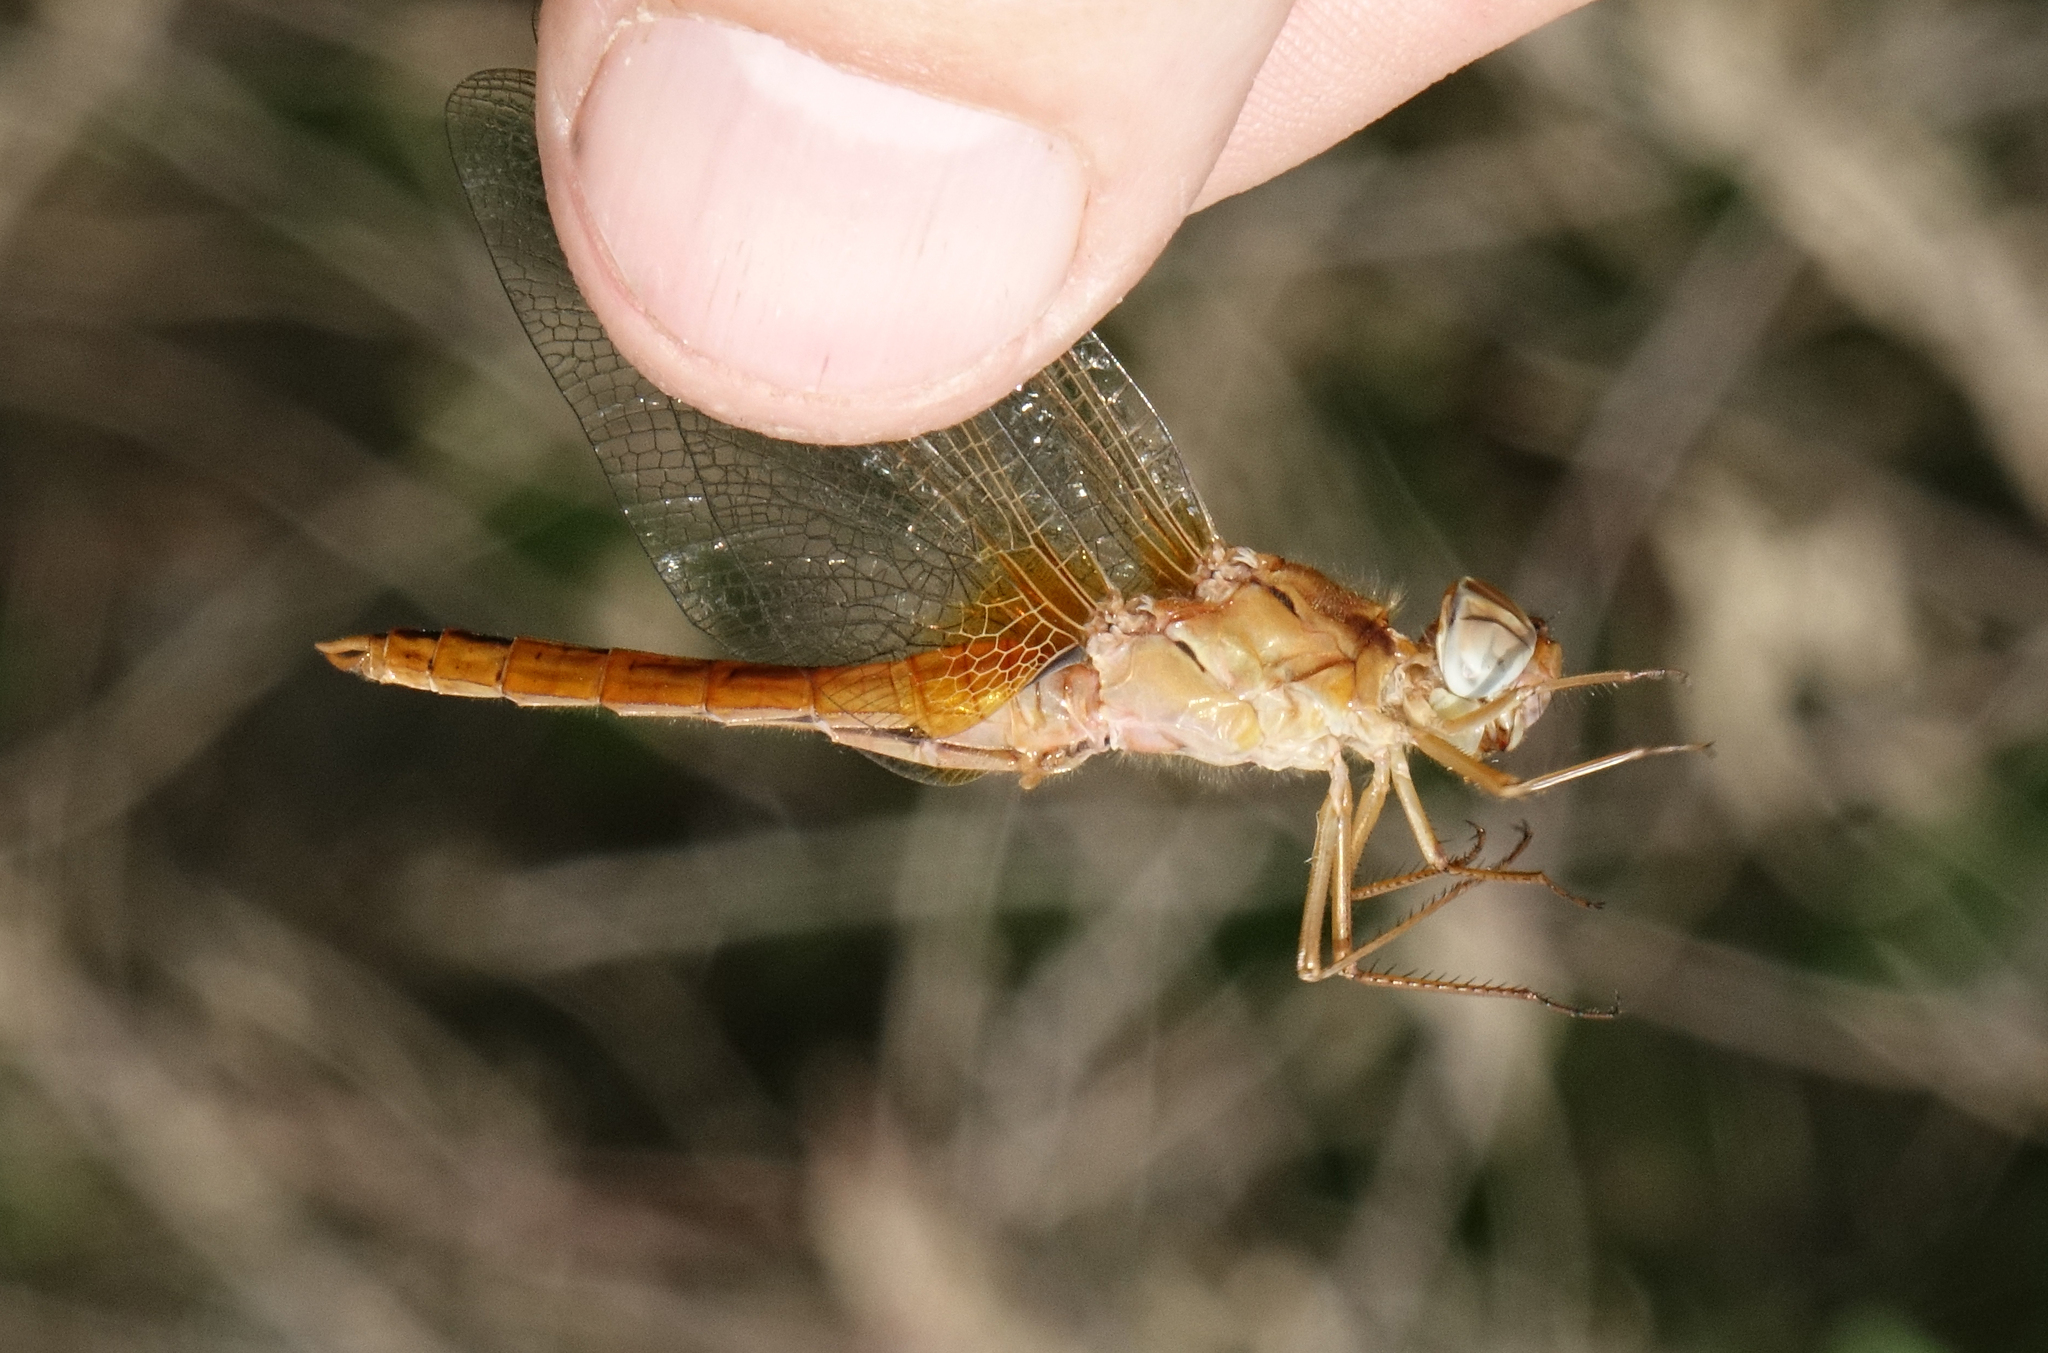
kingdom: Animalia
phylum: Arthropoda
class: Insecta
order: Odonata
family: Libellulidae
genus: Crocothemis
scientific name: Crocothemis erythraea
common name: Scarlet dragonfly
